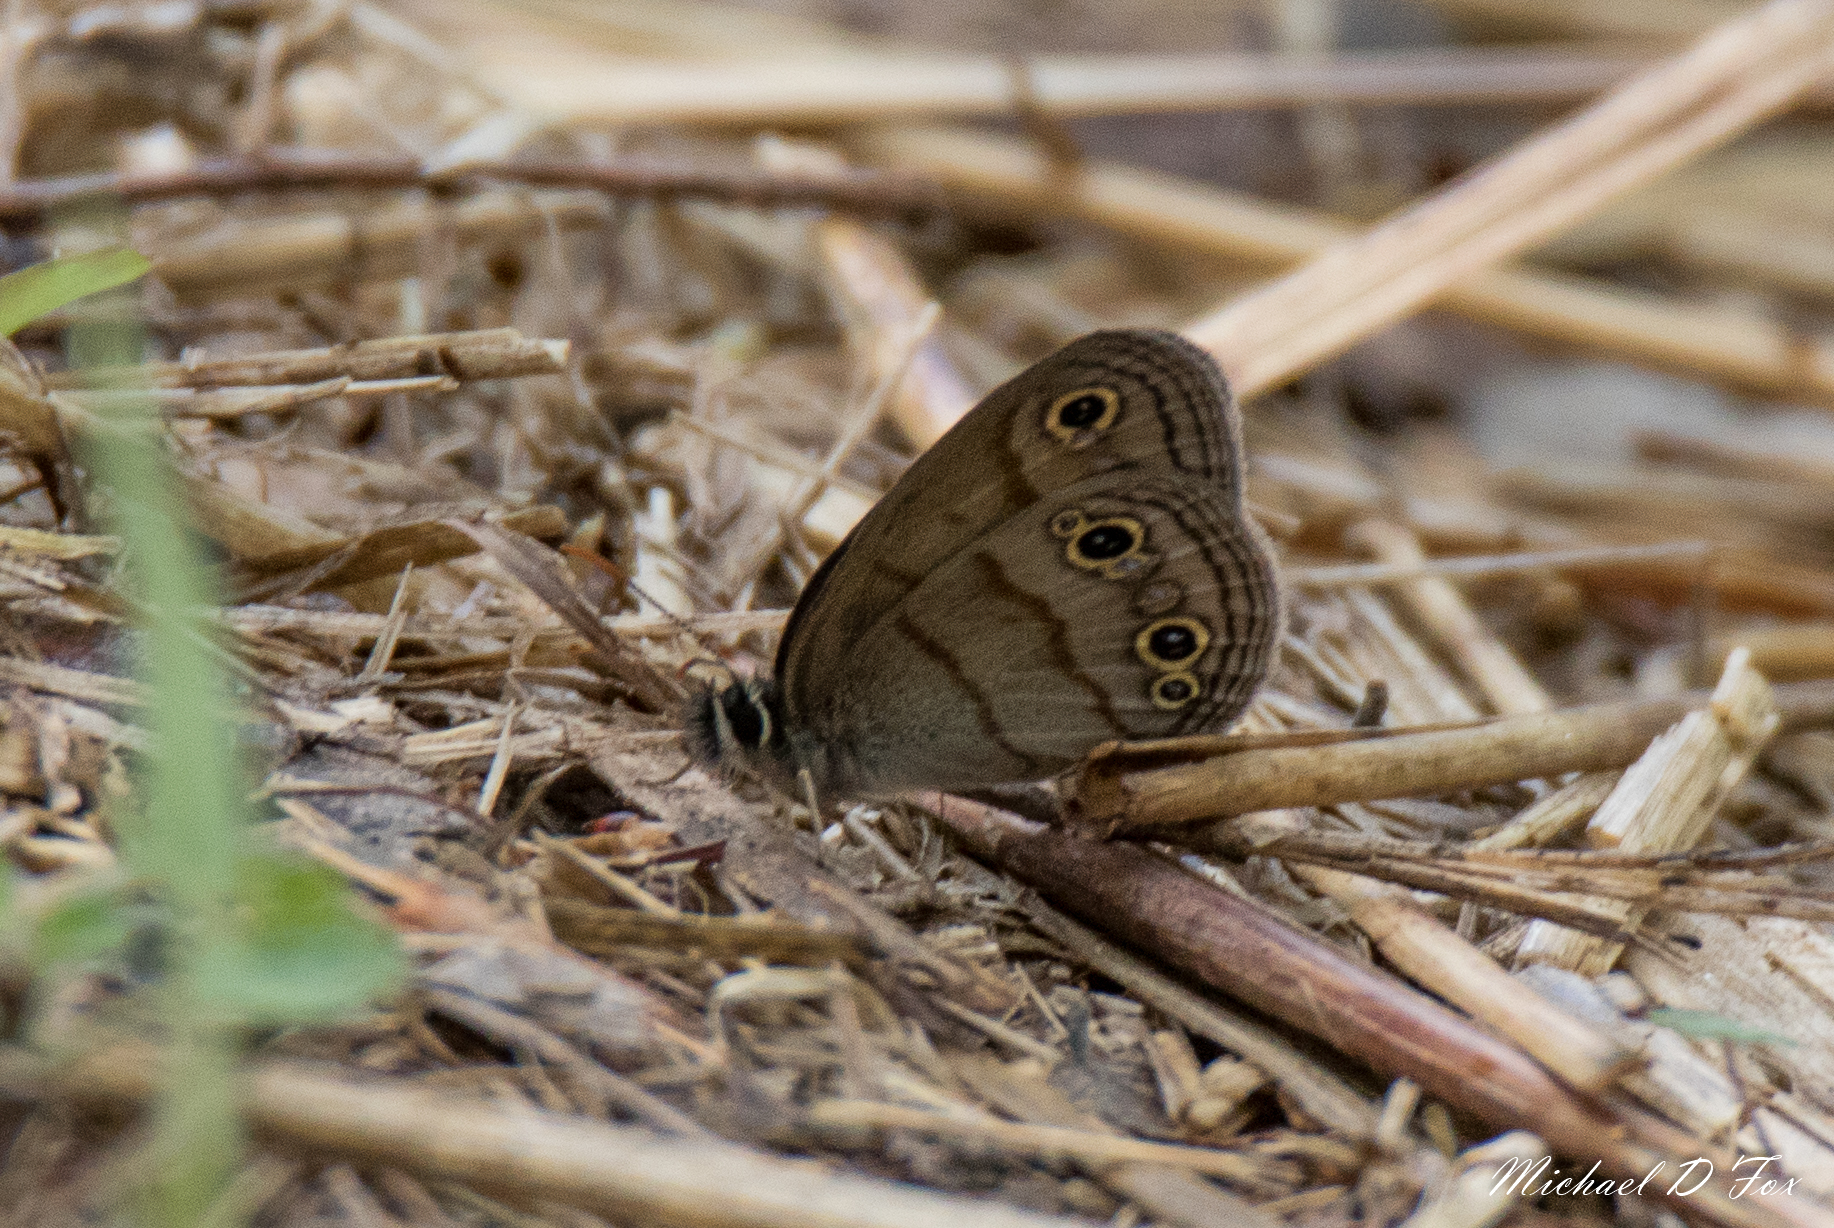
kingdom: Animalia
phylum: Arthropoda
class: Insecta
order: Lepidoptera
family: Nymphalidae
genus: Euptychia
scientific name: Euptychia cymela
